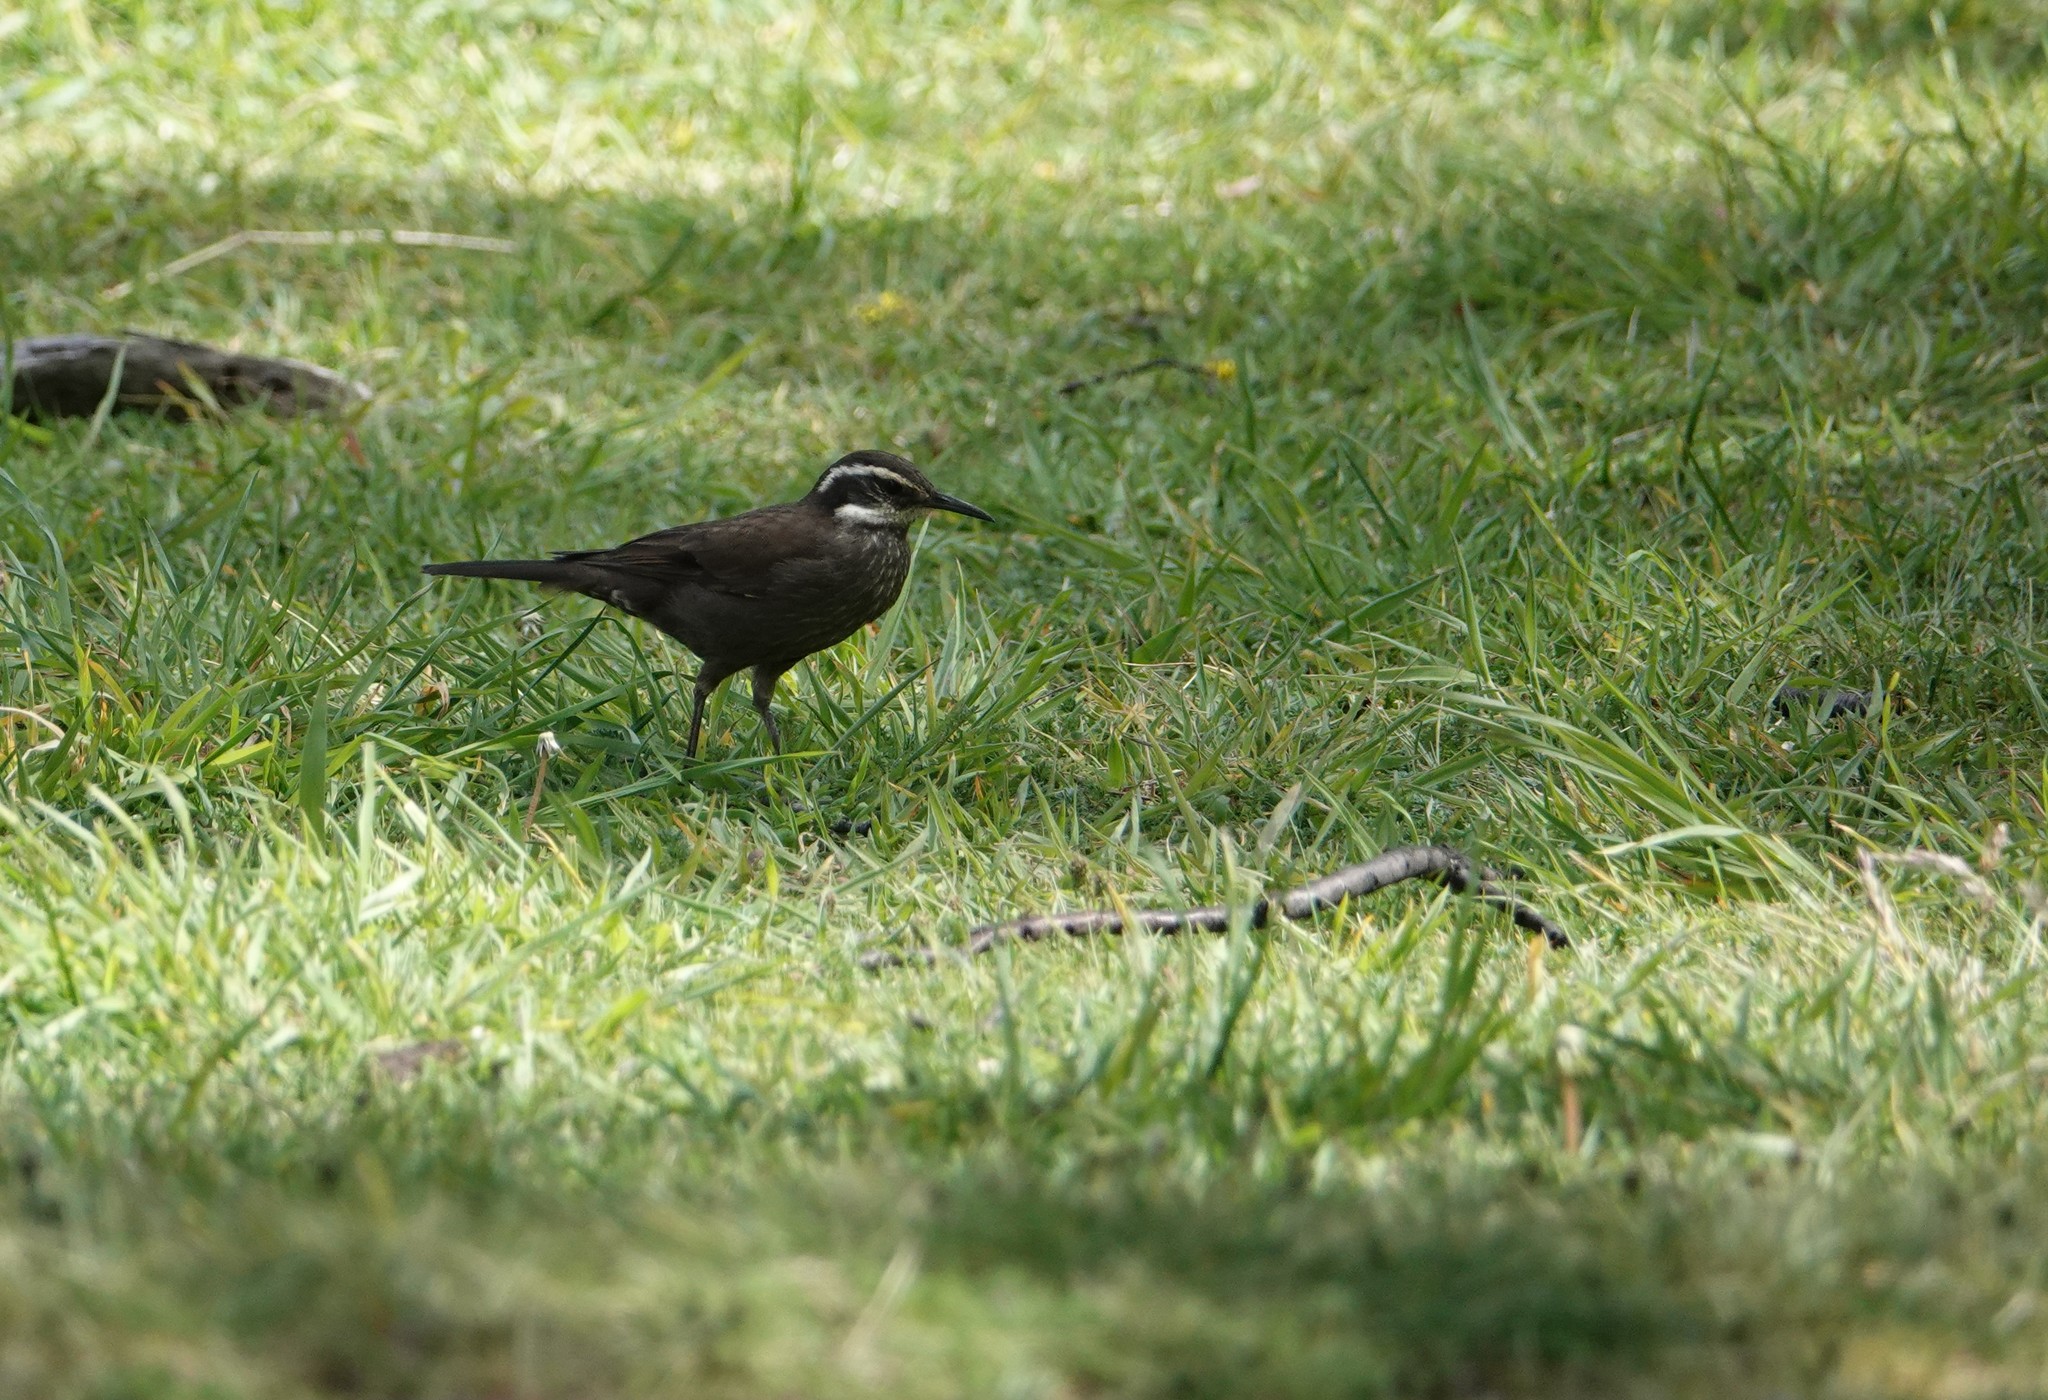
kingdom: Animalia
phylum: Chordata
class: Aves
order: Passeriformes
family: Furnariidae
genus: Cinclodes
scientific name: Cinclodes patagonicus
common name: Dark-bellied cinclodes
